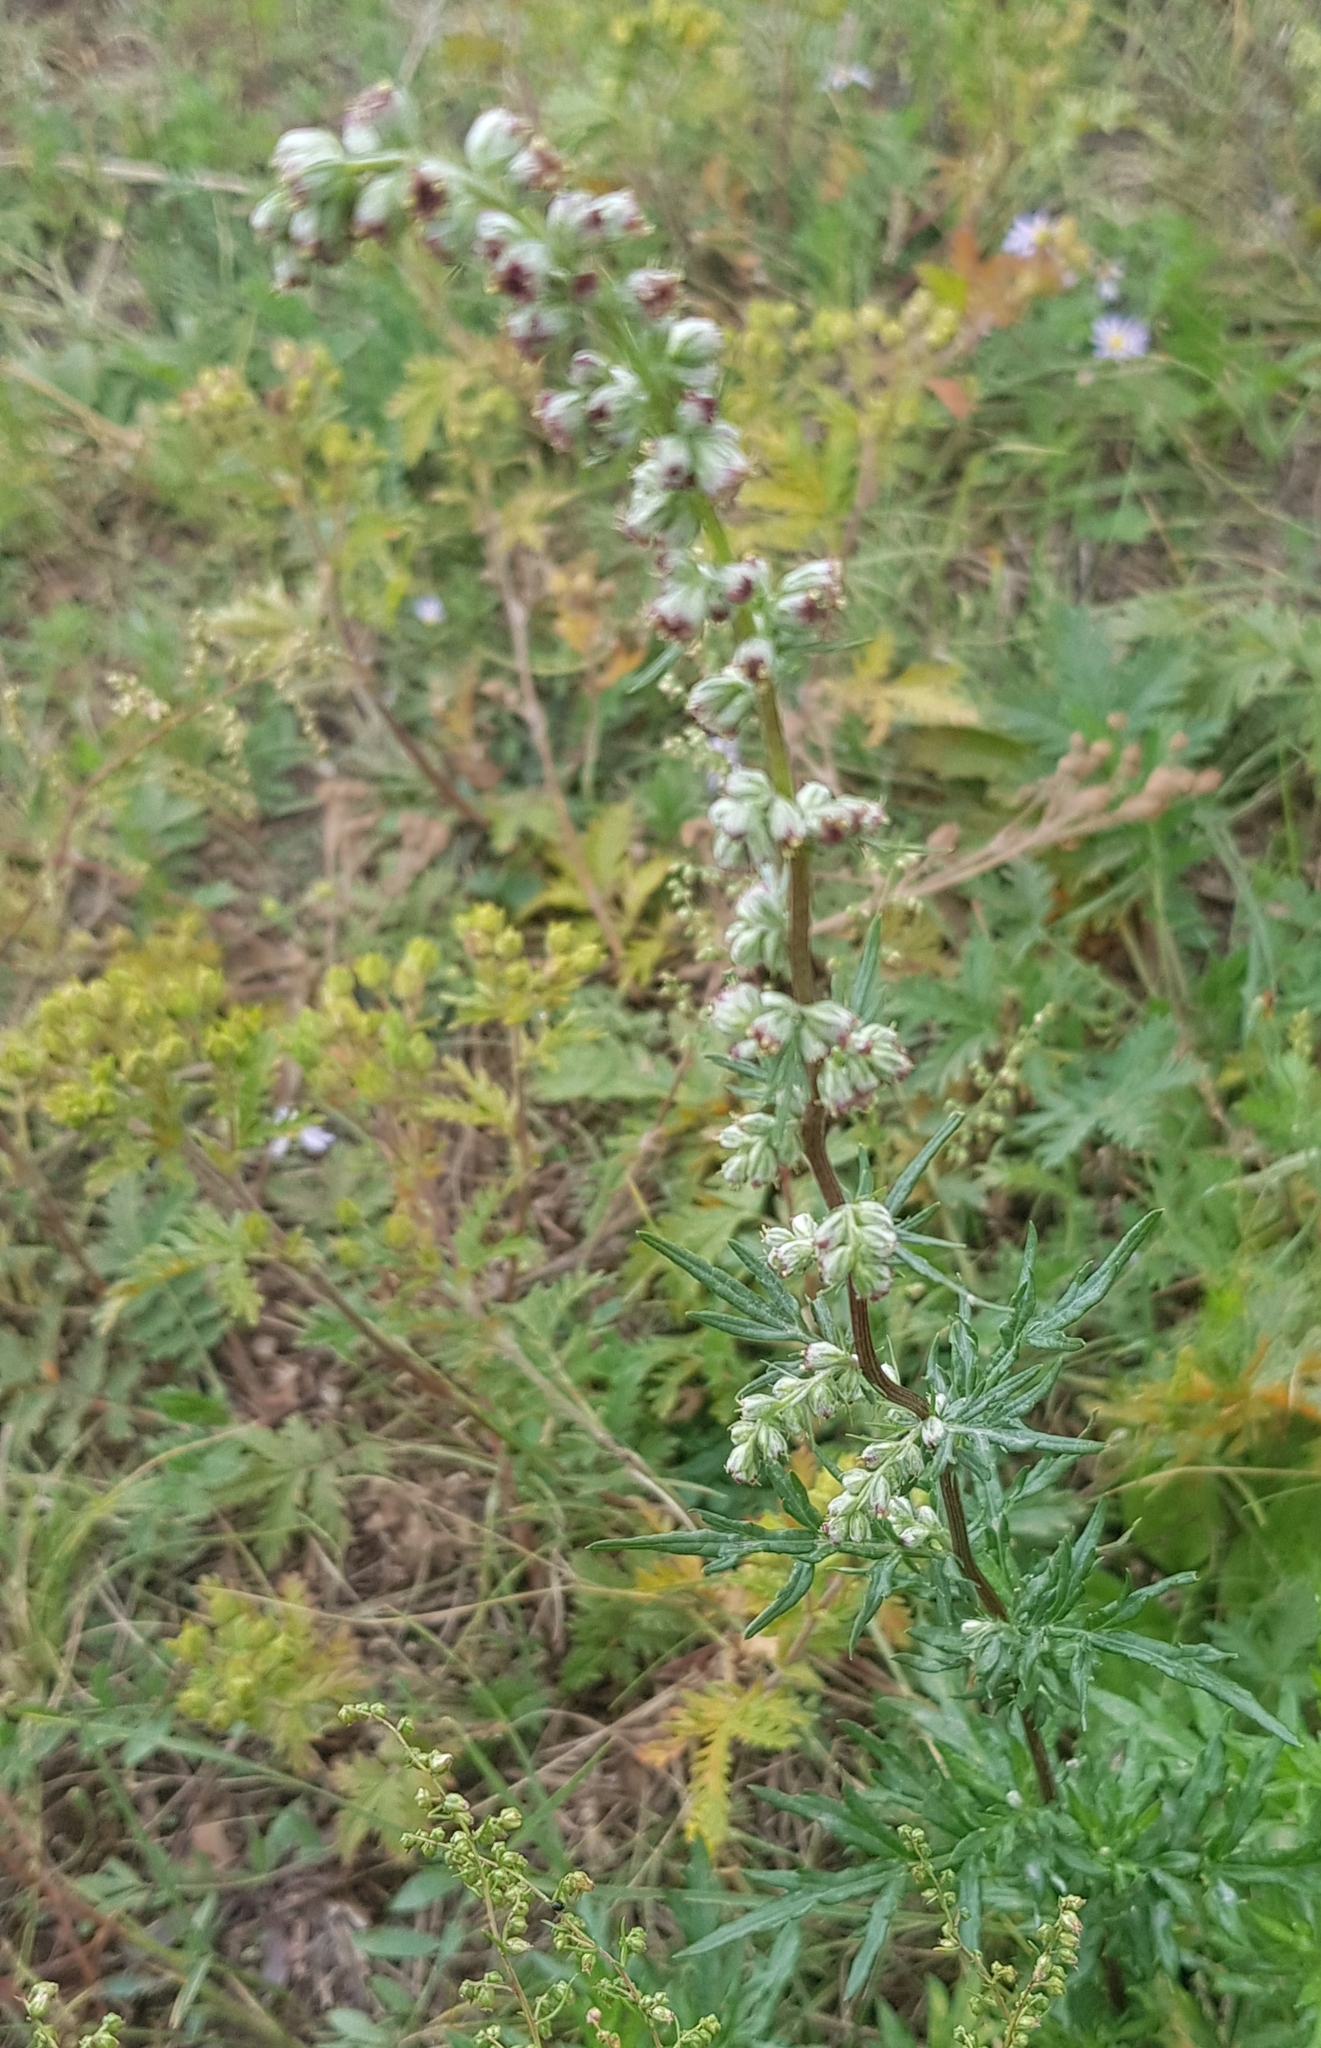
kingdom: Plantae
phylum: Tracheophyta
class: Magnoliopsida
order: Asterales
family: Asteraceae
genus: Artemisia
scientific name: Artemisia vulgaris
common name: Mugwort
